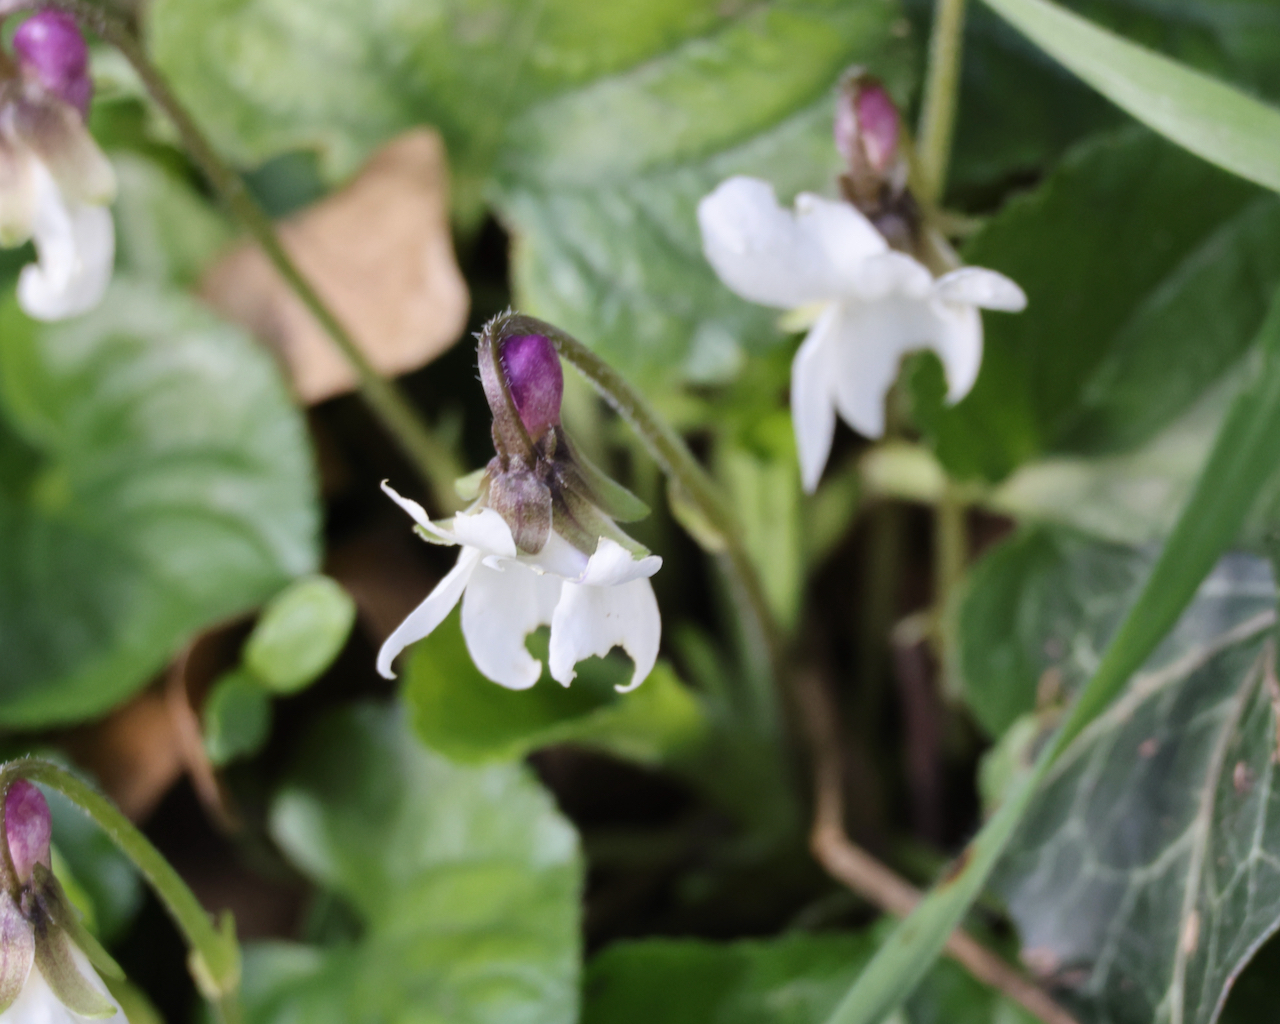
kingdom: Plantae
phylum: Tracheophyta
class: Magnoliopsida
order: Malpighiales
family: Violaceae
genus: Viola
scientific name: Viola odorata
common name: Sweet violet
